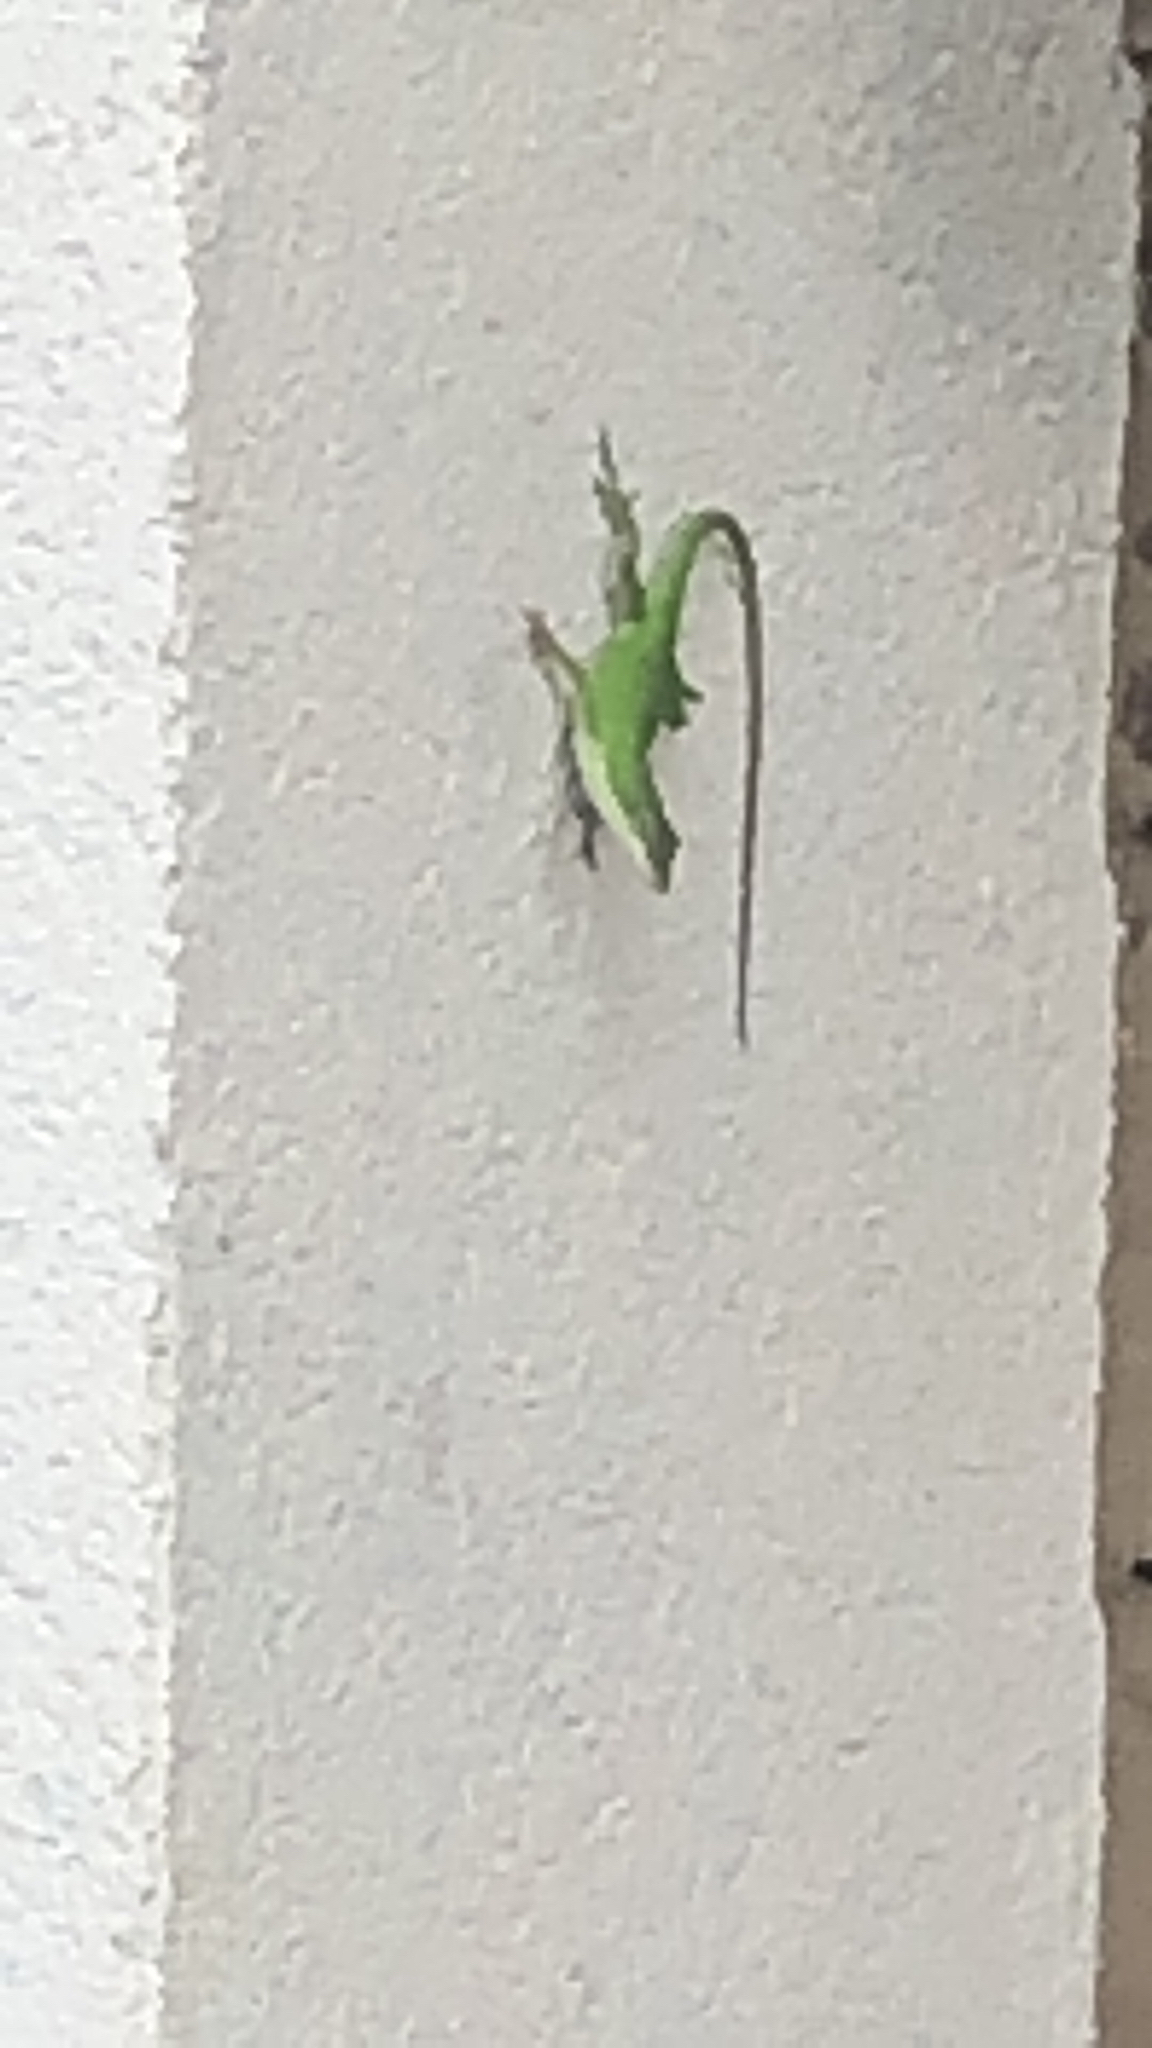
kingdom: Animalia
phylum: Chordata
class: Squamata
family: Dactyloidae
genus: Anolis
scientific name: Anolis carolinensis
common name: Green anole
